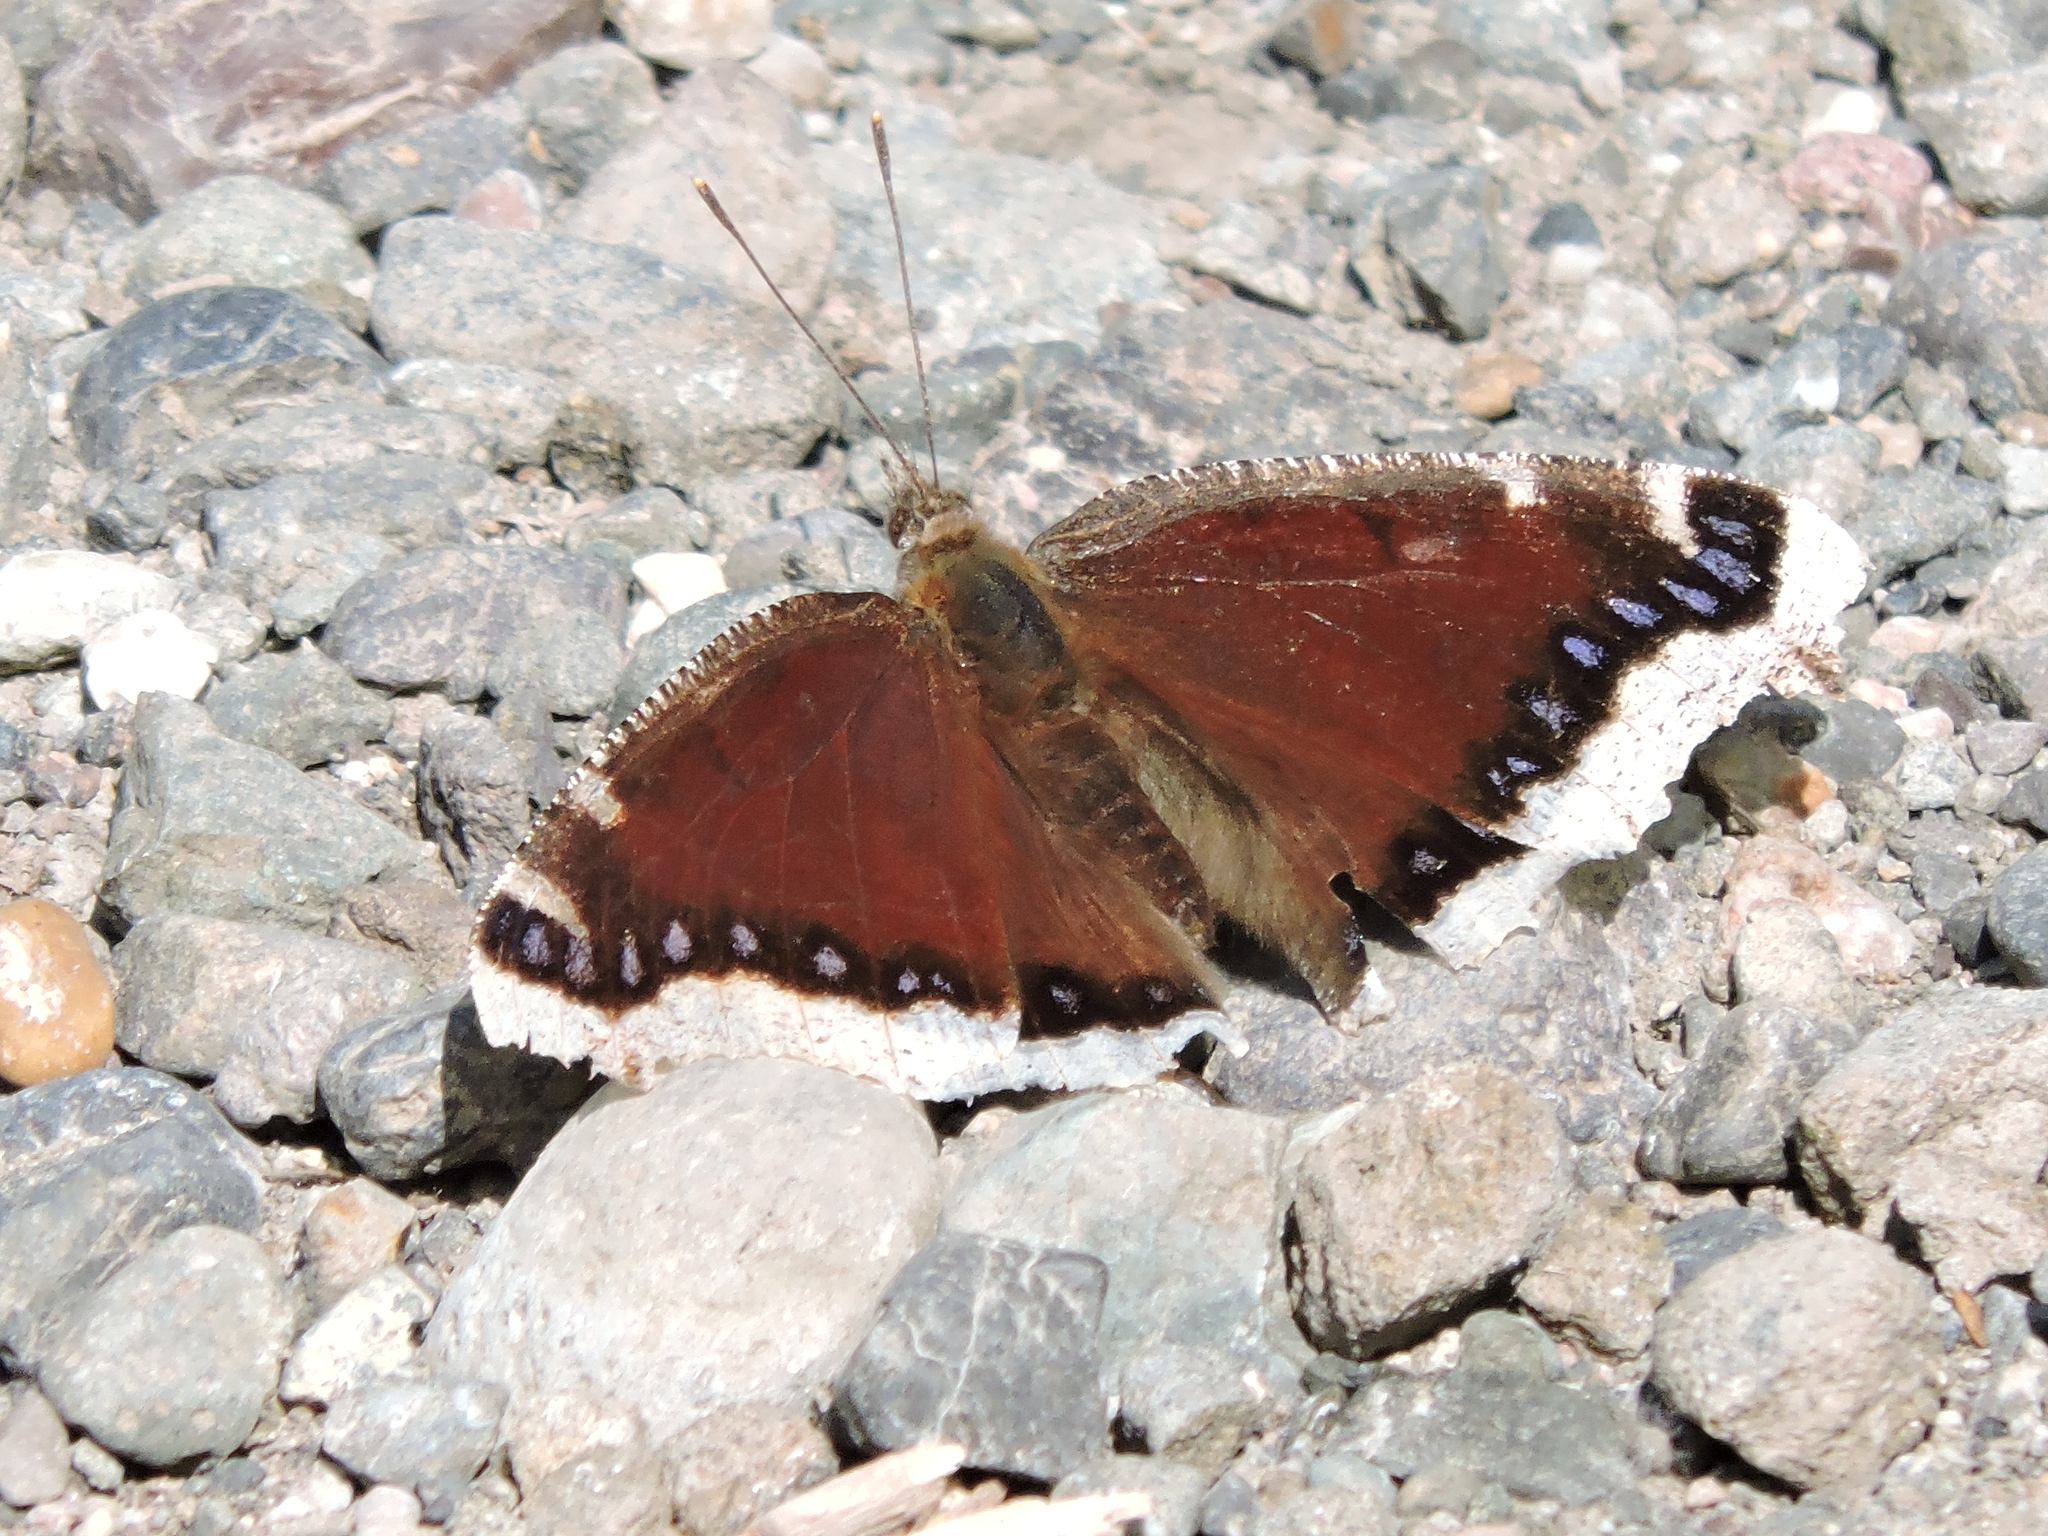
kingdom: Animalia
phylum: Arthropoda
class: Insecta
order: Lepidoptera
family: Nymphalidae
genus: Nymphalis
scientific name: Nymphalis antiopa
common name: Camberwell beauty
